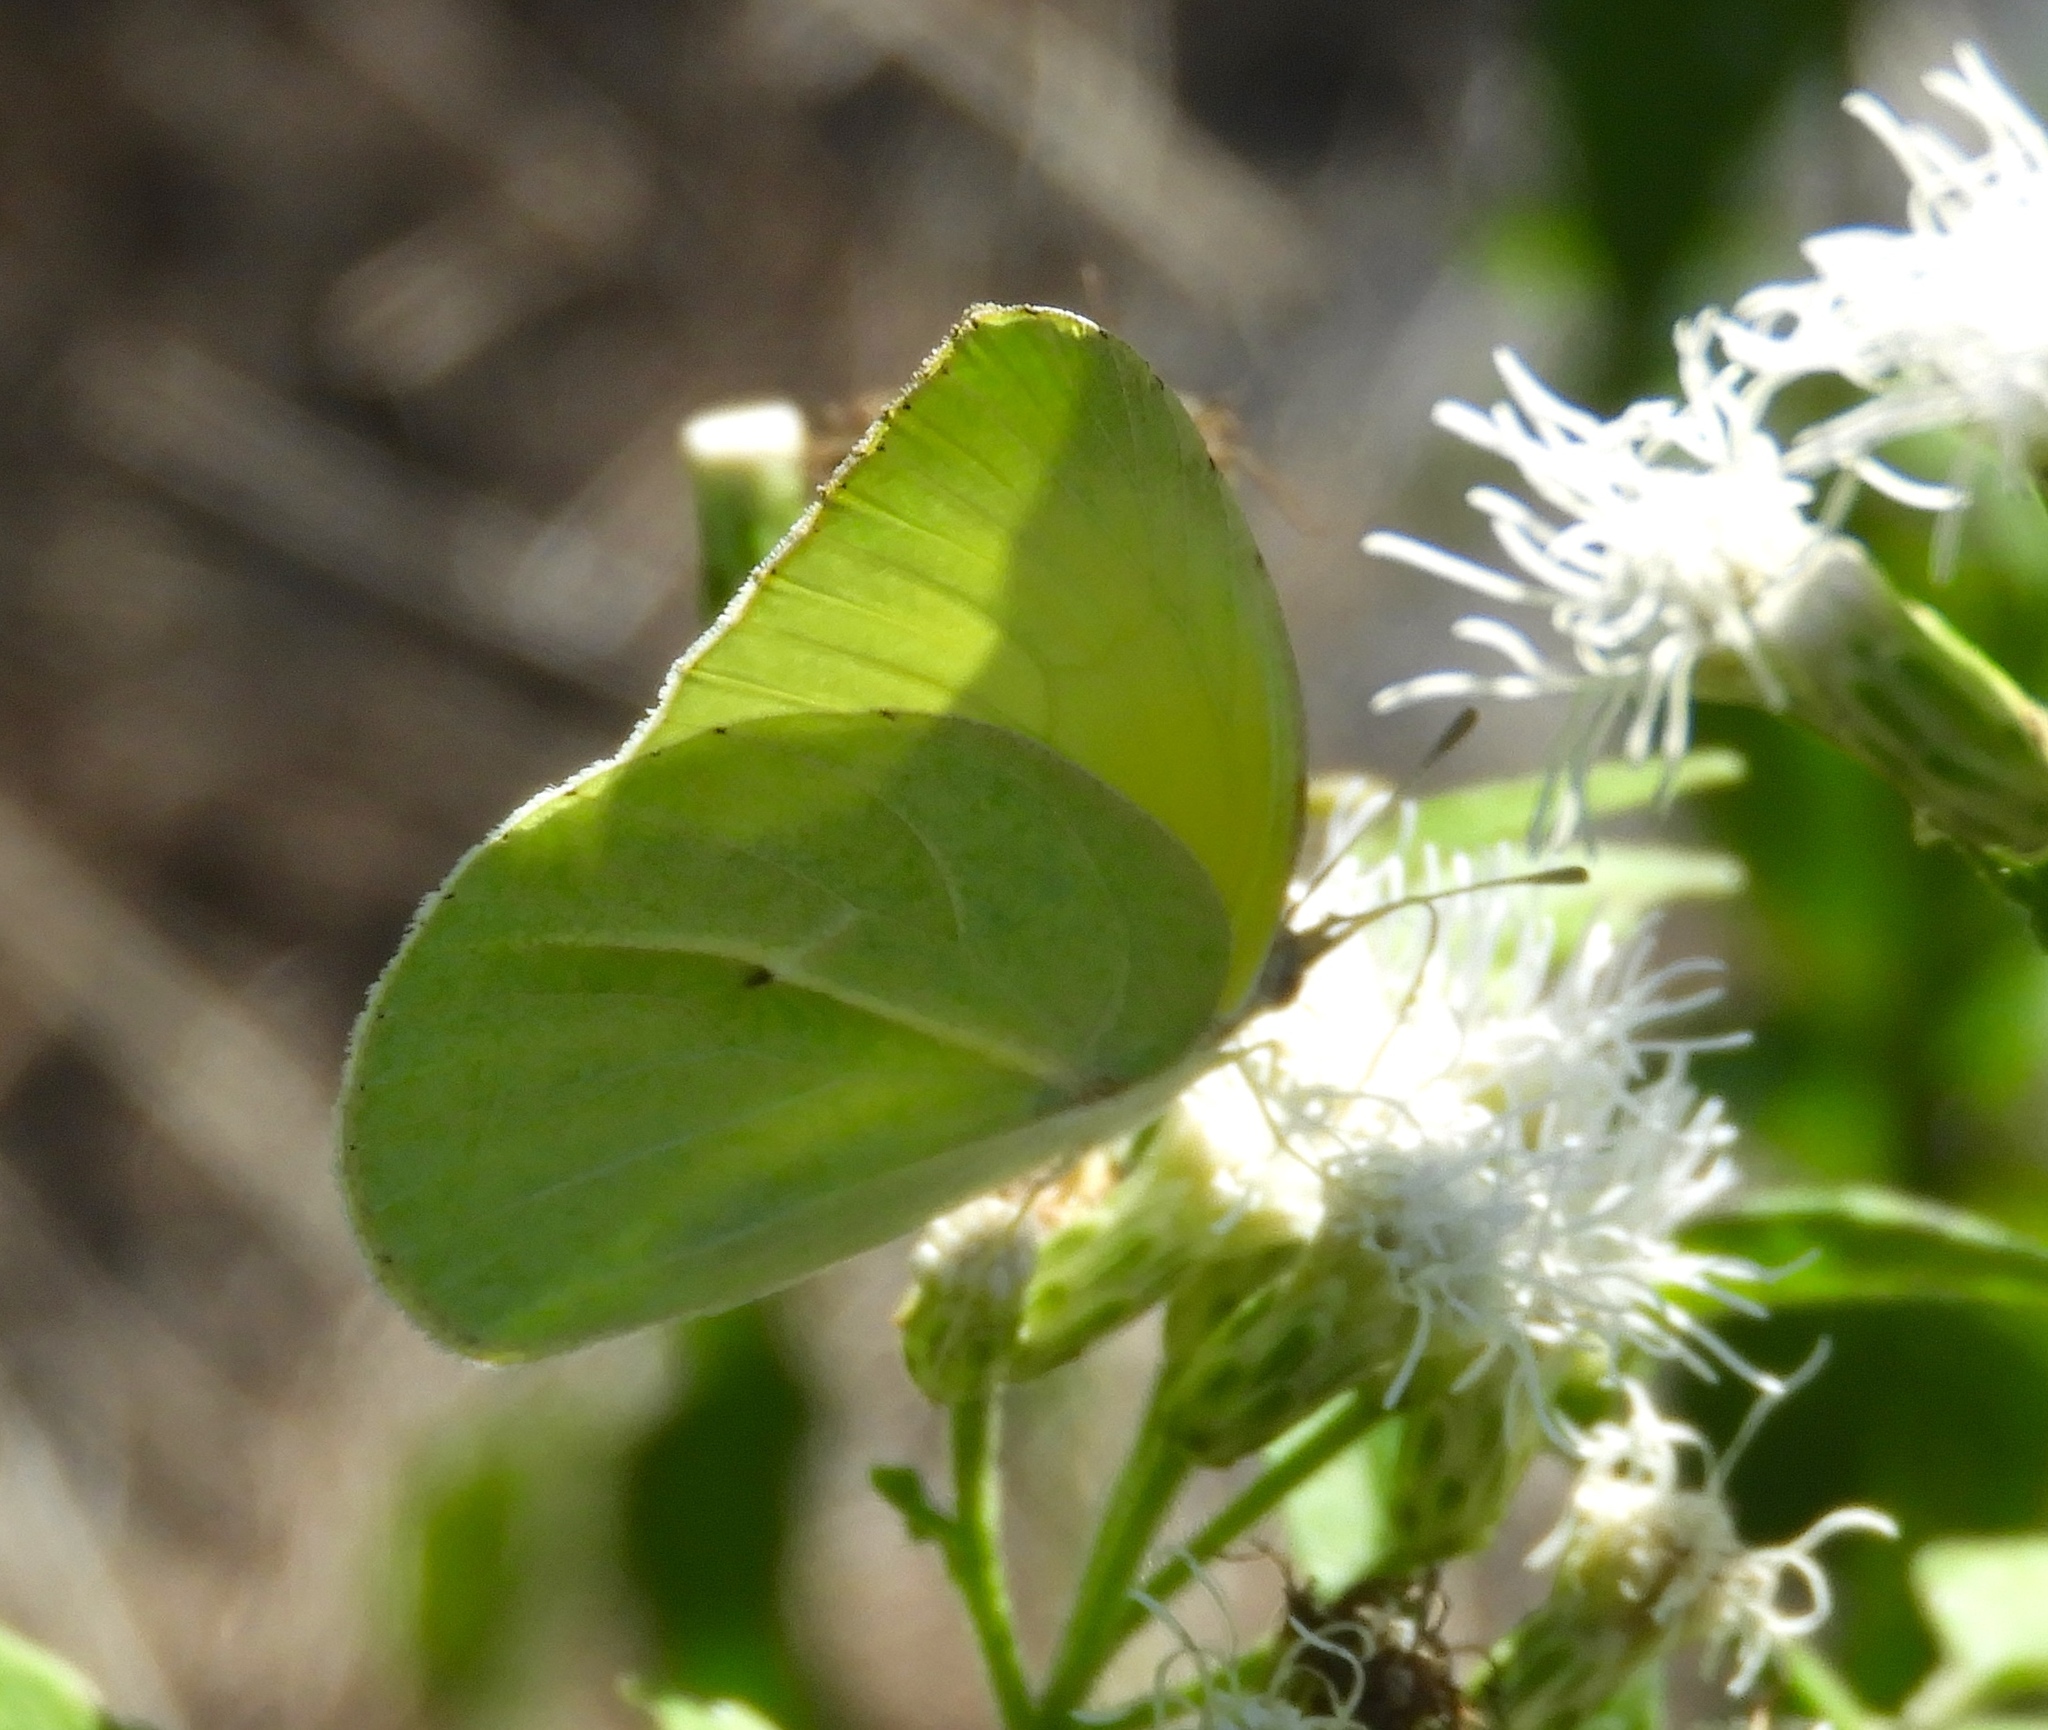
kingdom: Animalia
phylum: Arthropoda
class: Insecta
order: Lepidoptera
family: Pieridae
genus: Kricogonia
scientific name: Kricogonia lyside
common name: Guayacan sulphur,
